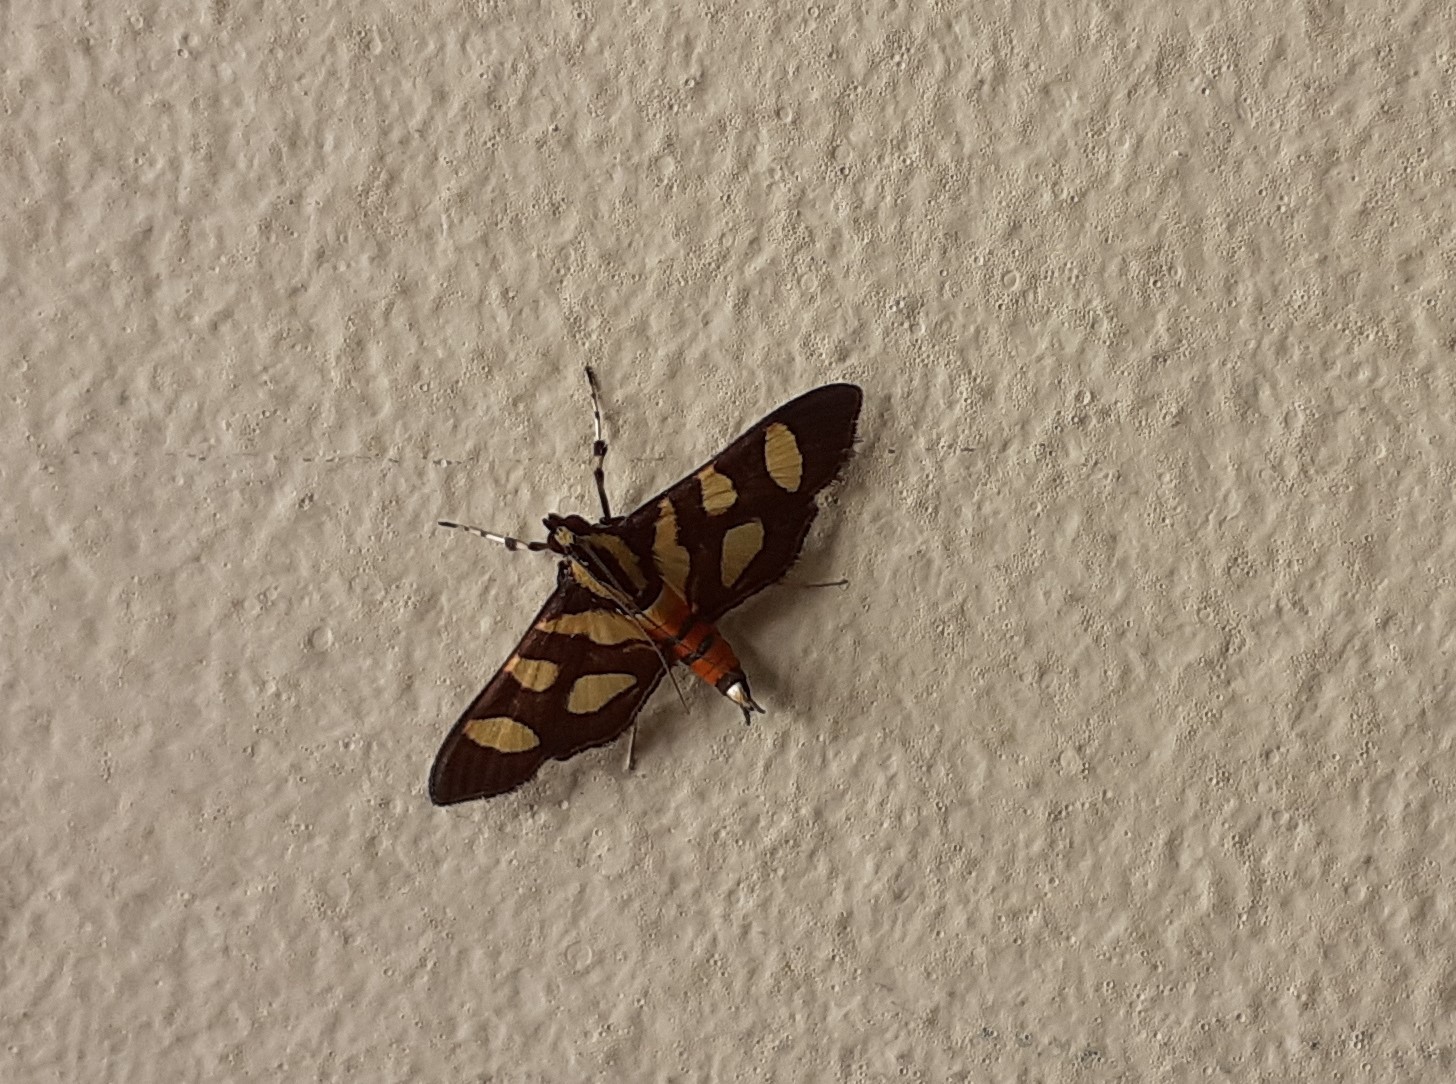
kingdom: Animalia
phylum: Arthropoda
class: Insecta
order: Lepidoptera
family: Crambidae
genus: Syngamia
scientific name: Syngamia florella
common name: Orange-spotted flower moth
